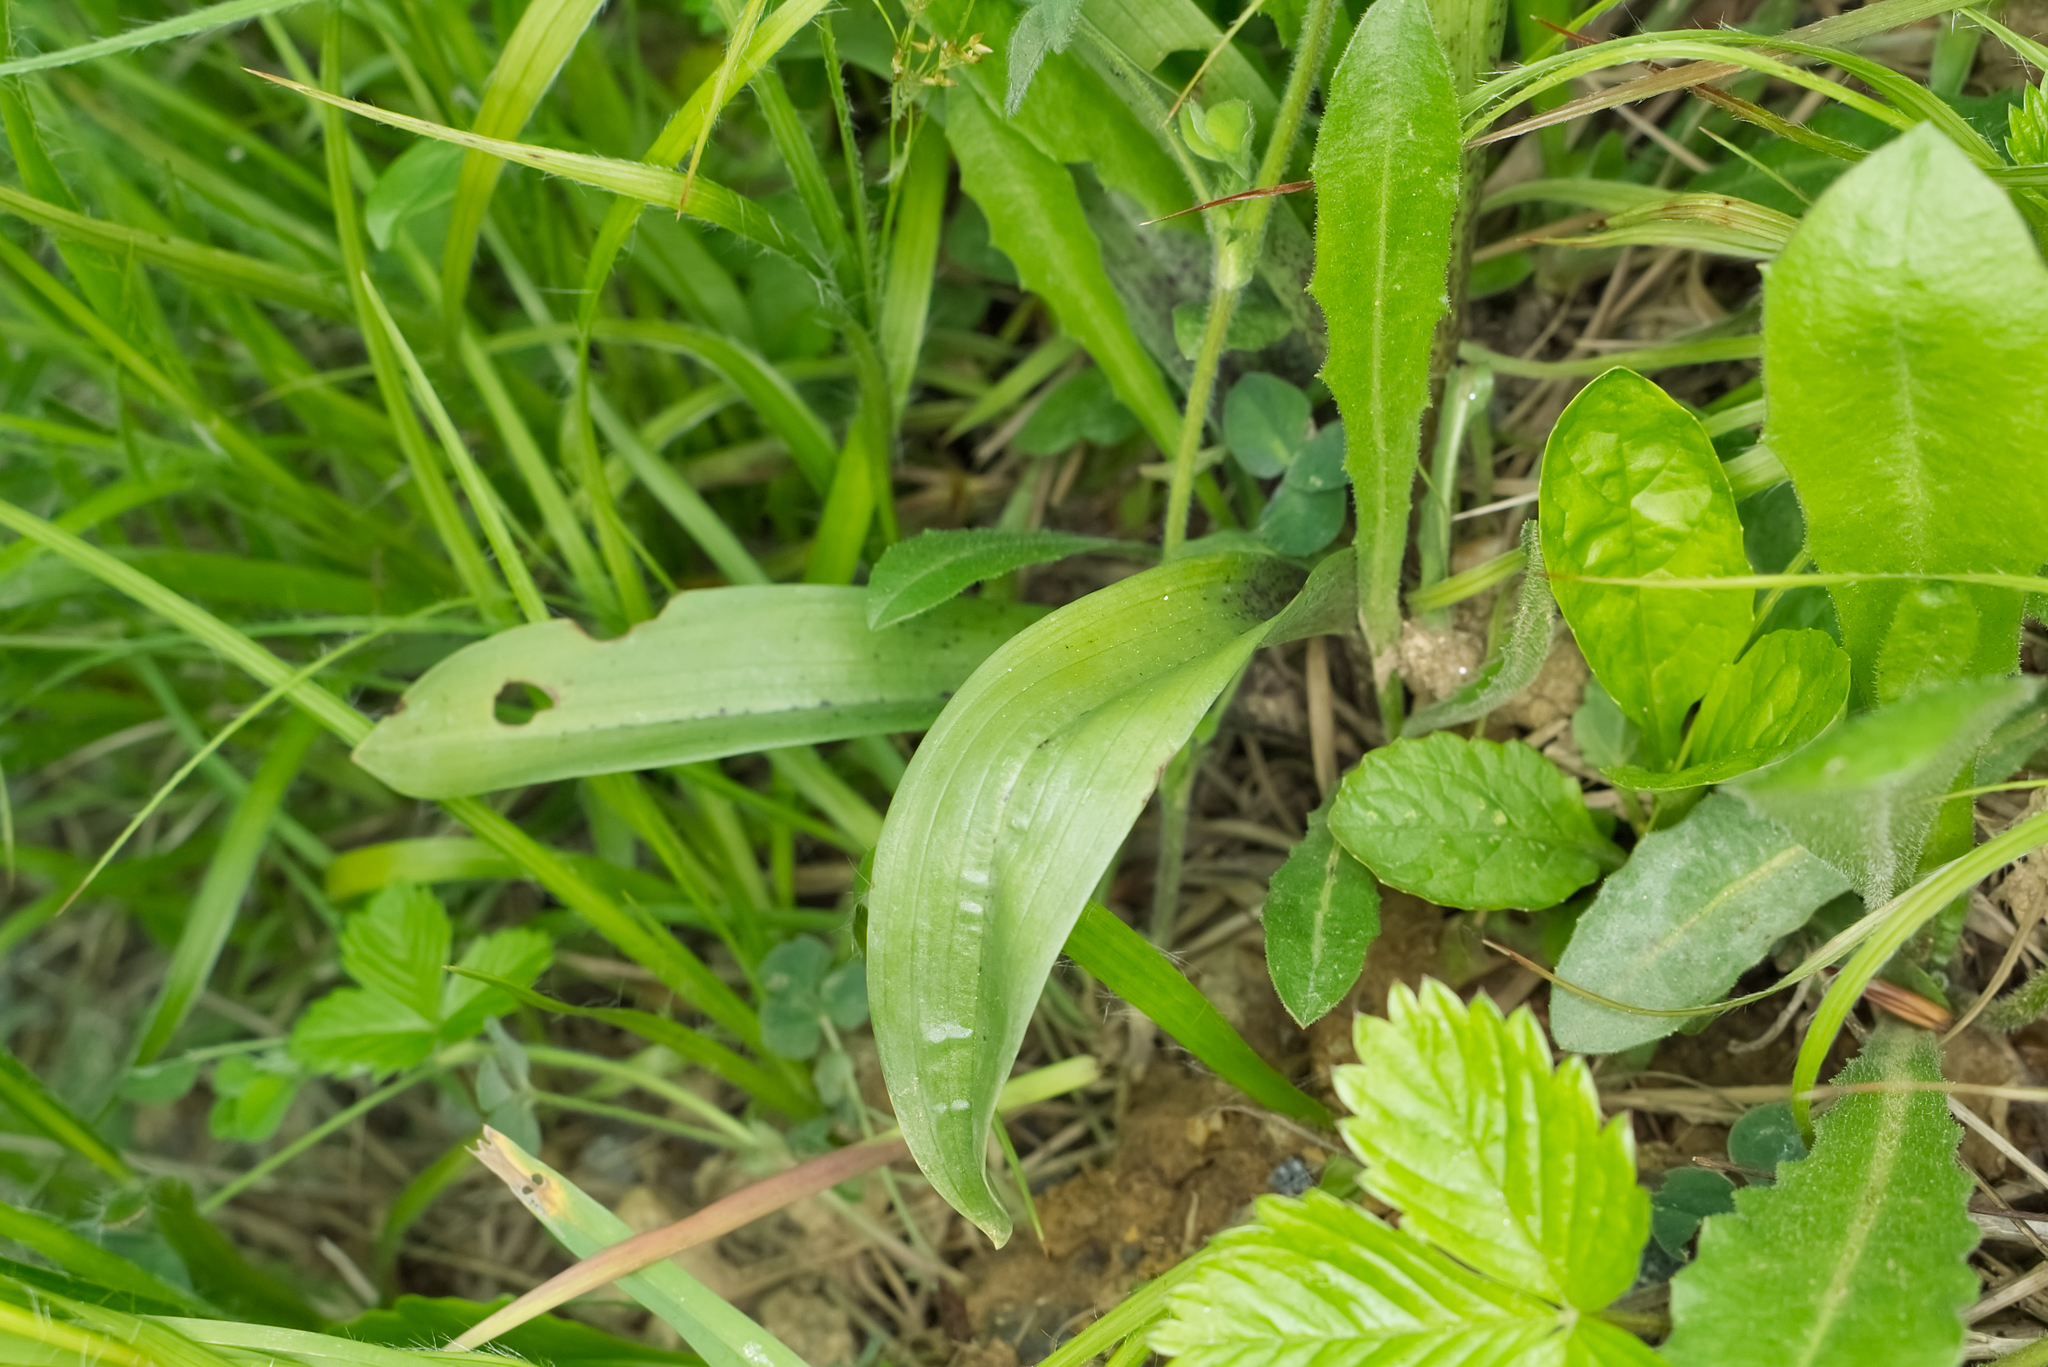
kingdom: Plantae
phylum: Tracheophyta
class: Liliopsida
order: Asparagales
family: Orchidaceae
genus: Orchis
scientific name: Orchis mascula
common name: Early-purple orchid
